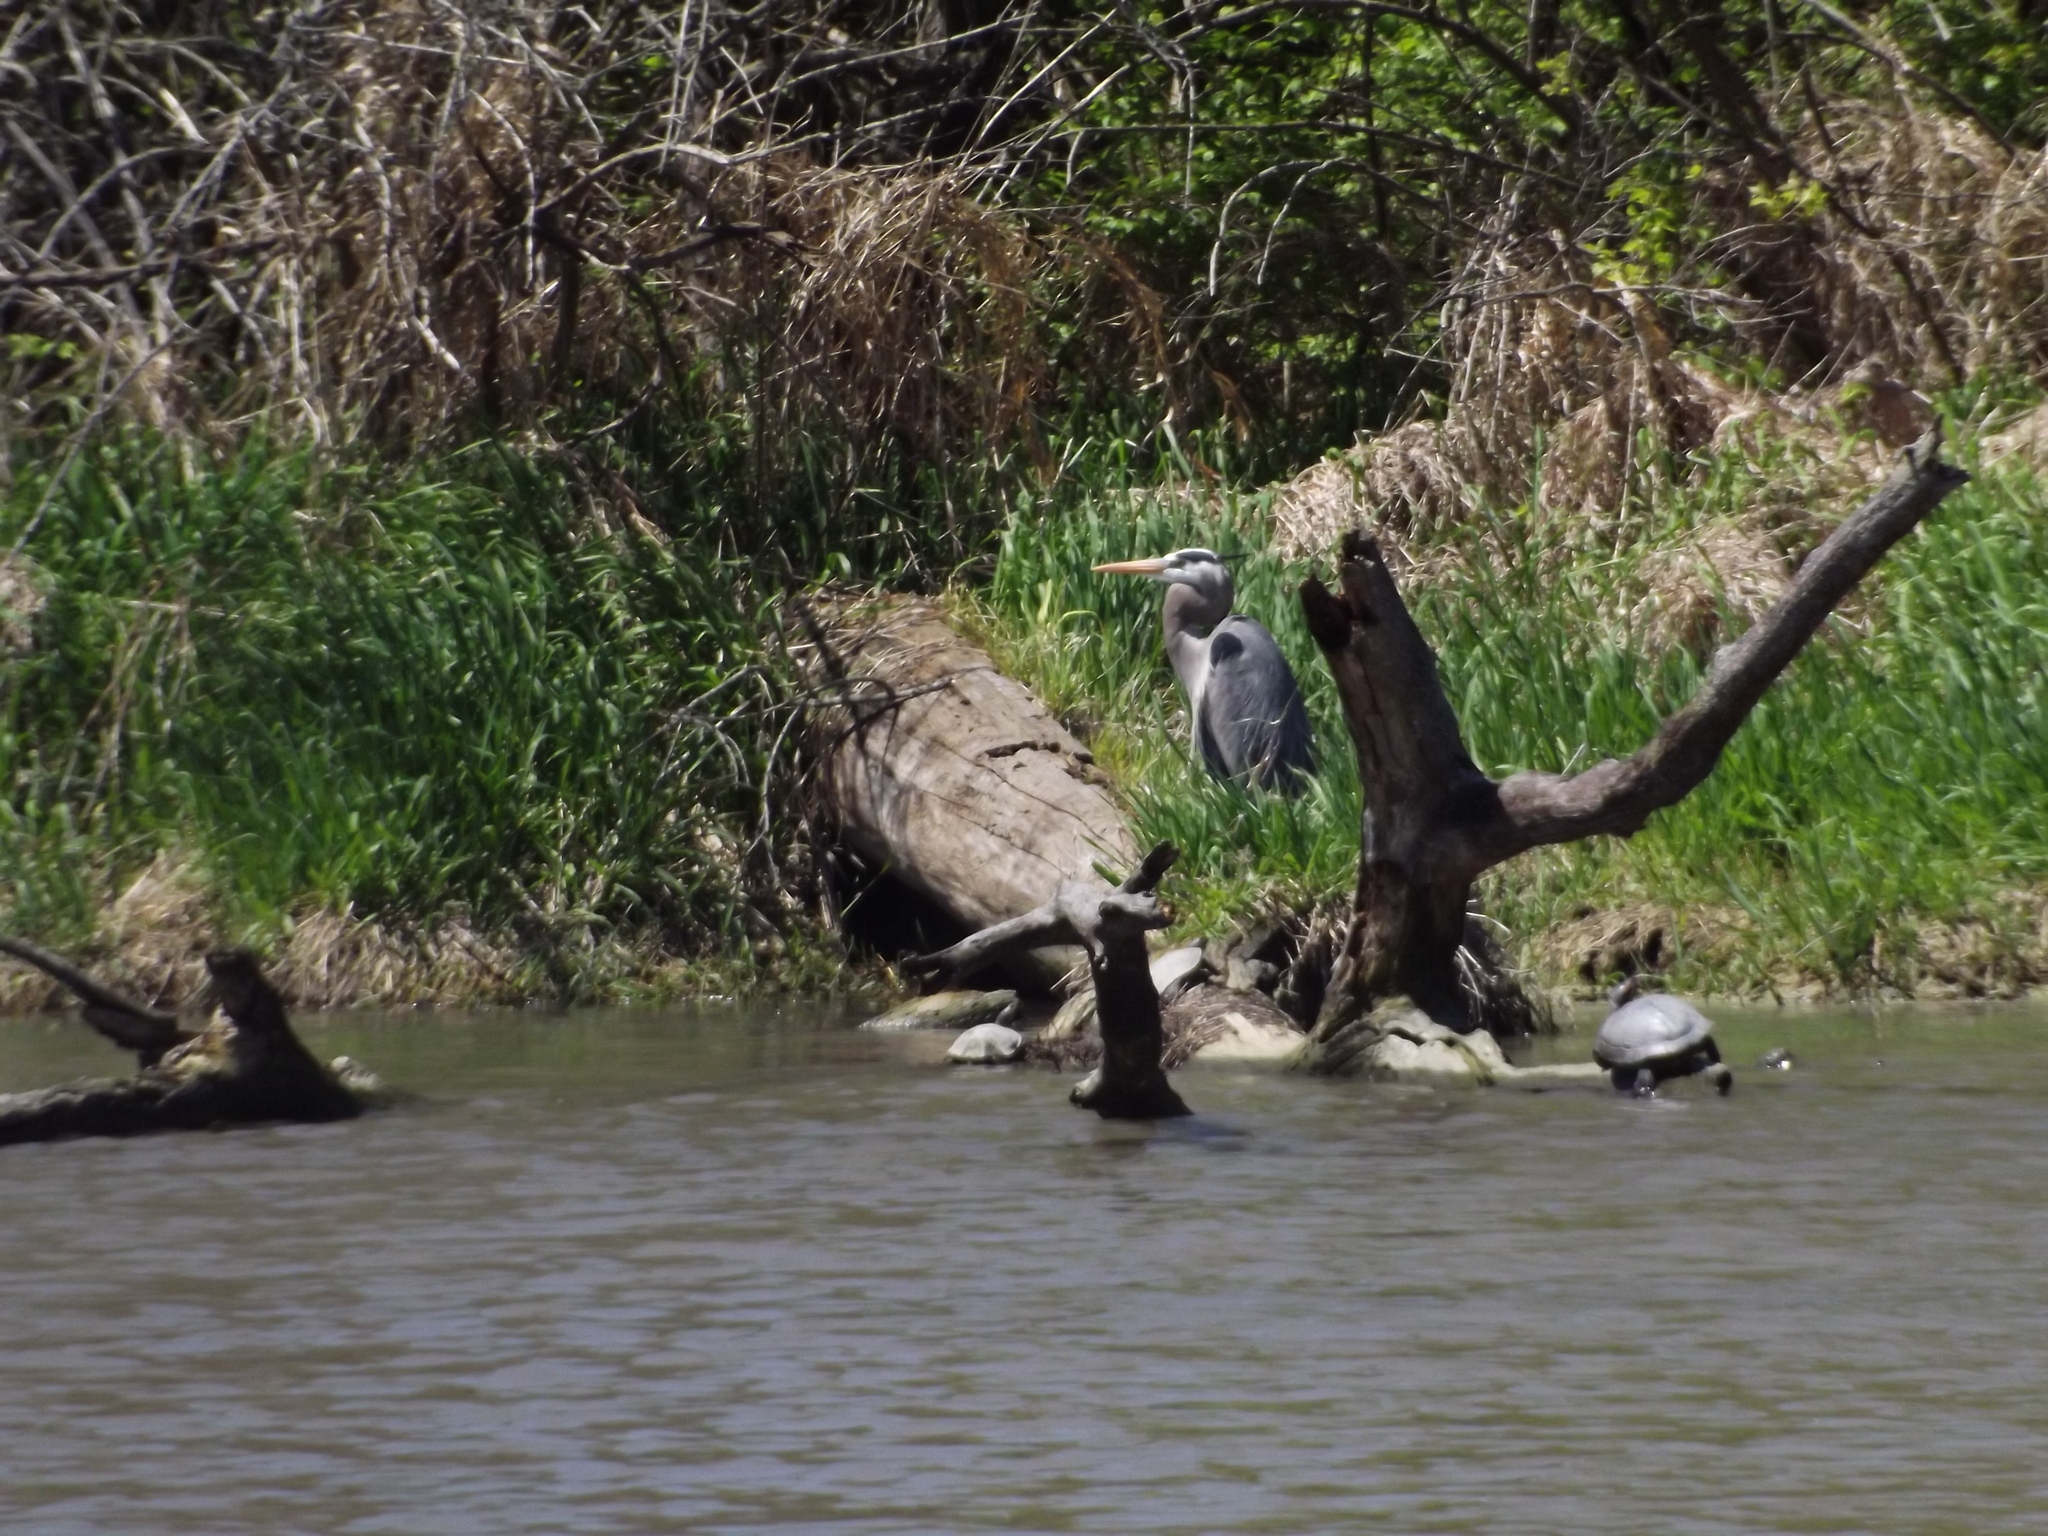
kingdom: Animalia
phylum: Chordata
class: Aves
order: Pelecaniformes
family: Ardeidae
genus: Ardea
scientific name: Ardea herodias
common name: Great blue heron
